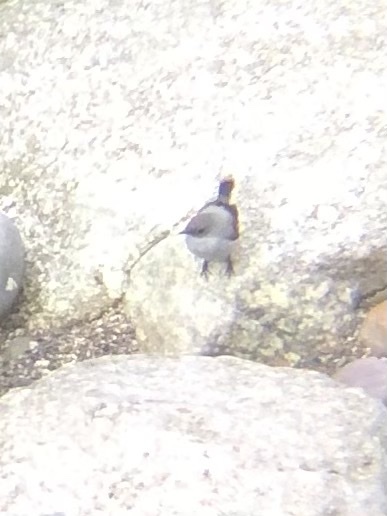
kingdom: Animalia
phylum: Chordata
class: Aves
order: Passeriformes
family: Tyrannidae
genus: Serpophaga
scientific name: Serpophaga cinerea
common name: Torrent tyrannulet
